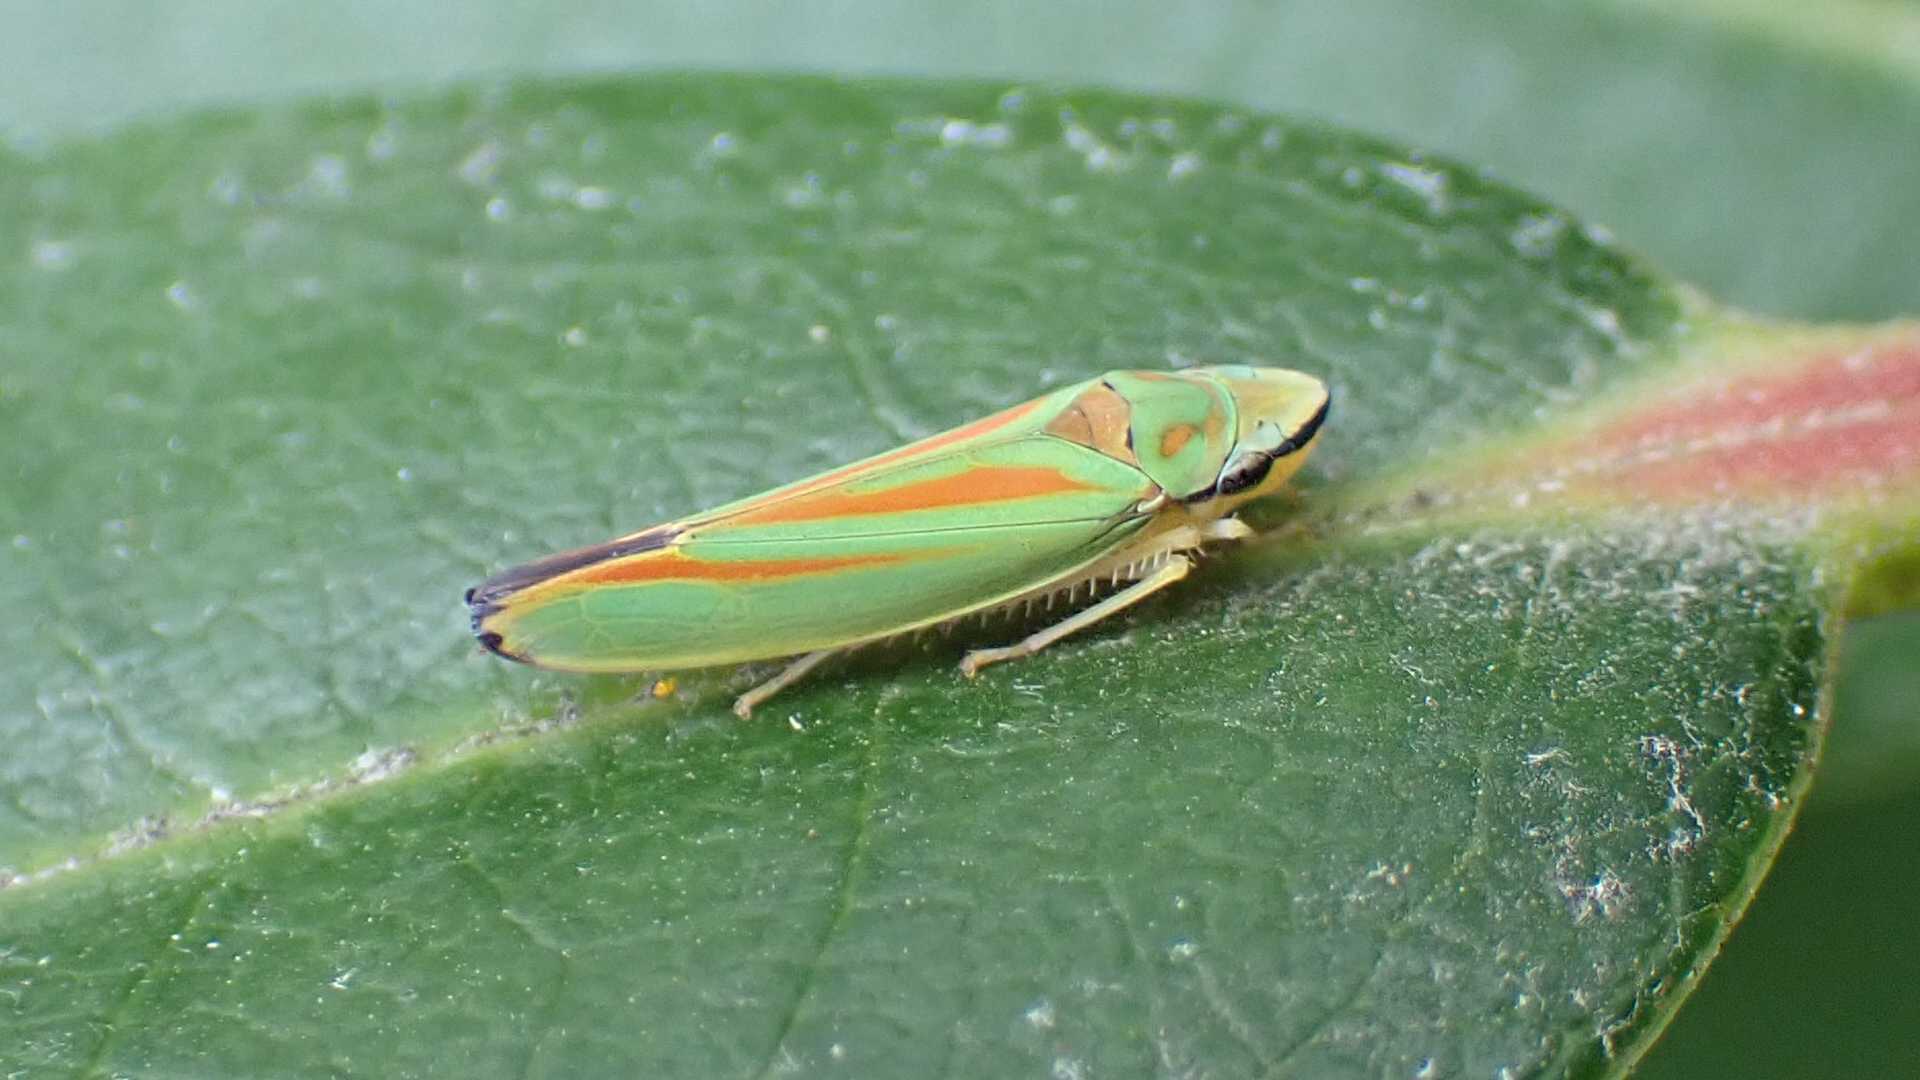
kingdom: Animalia
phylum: Arthropoda
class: Insecta
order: Hemiptera
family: Cicadellidae
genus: Graphocephala
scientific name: Graphocephala fennahi
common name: Rhododendron leafhopper
